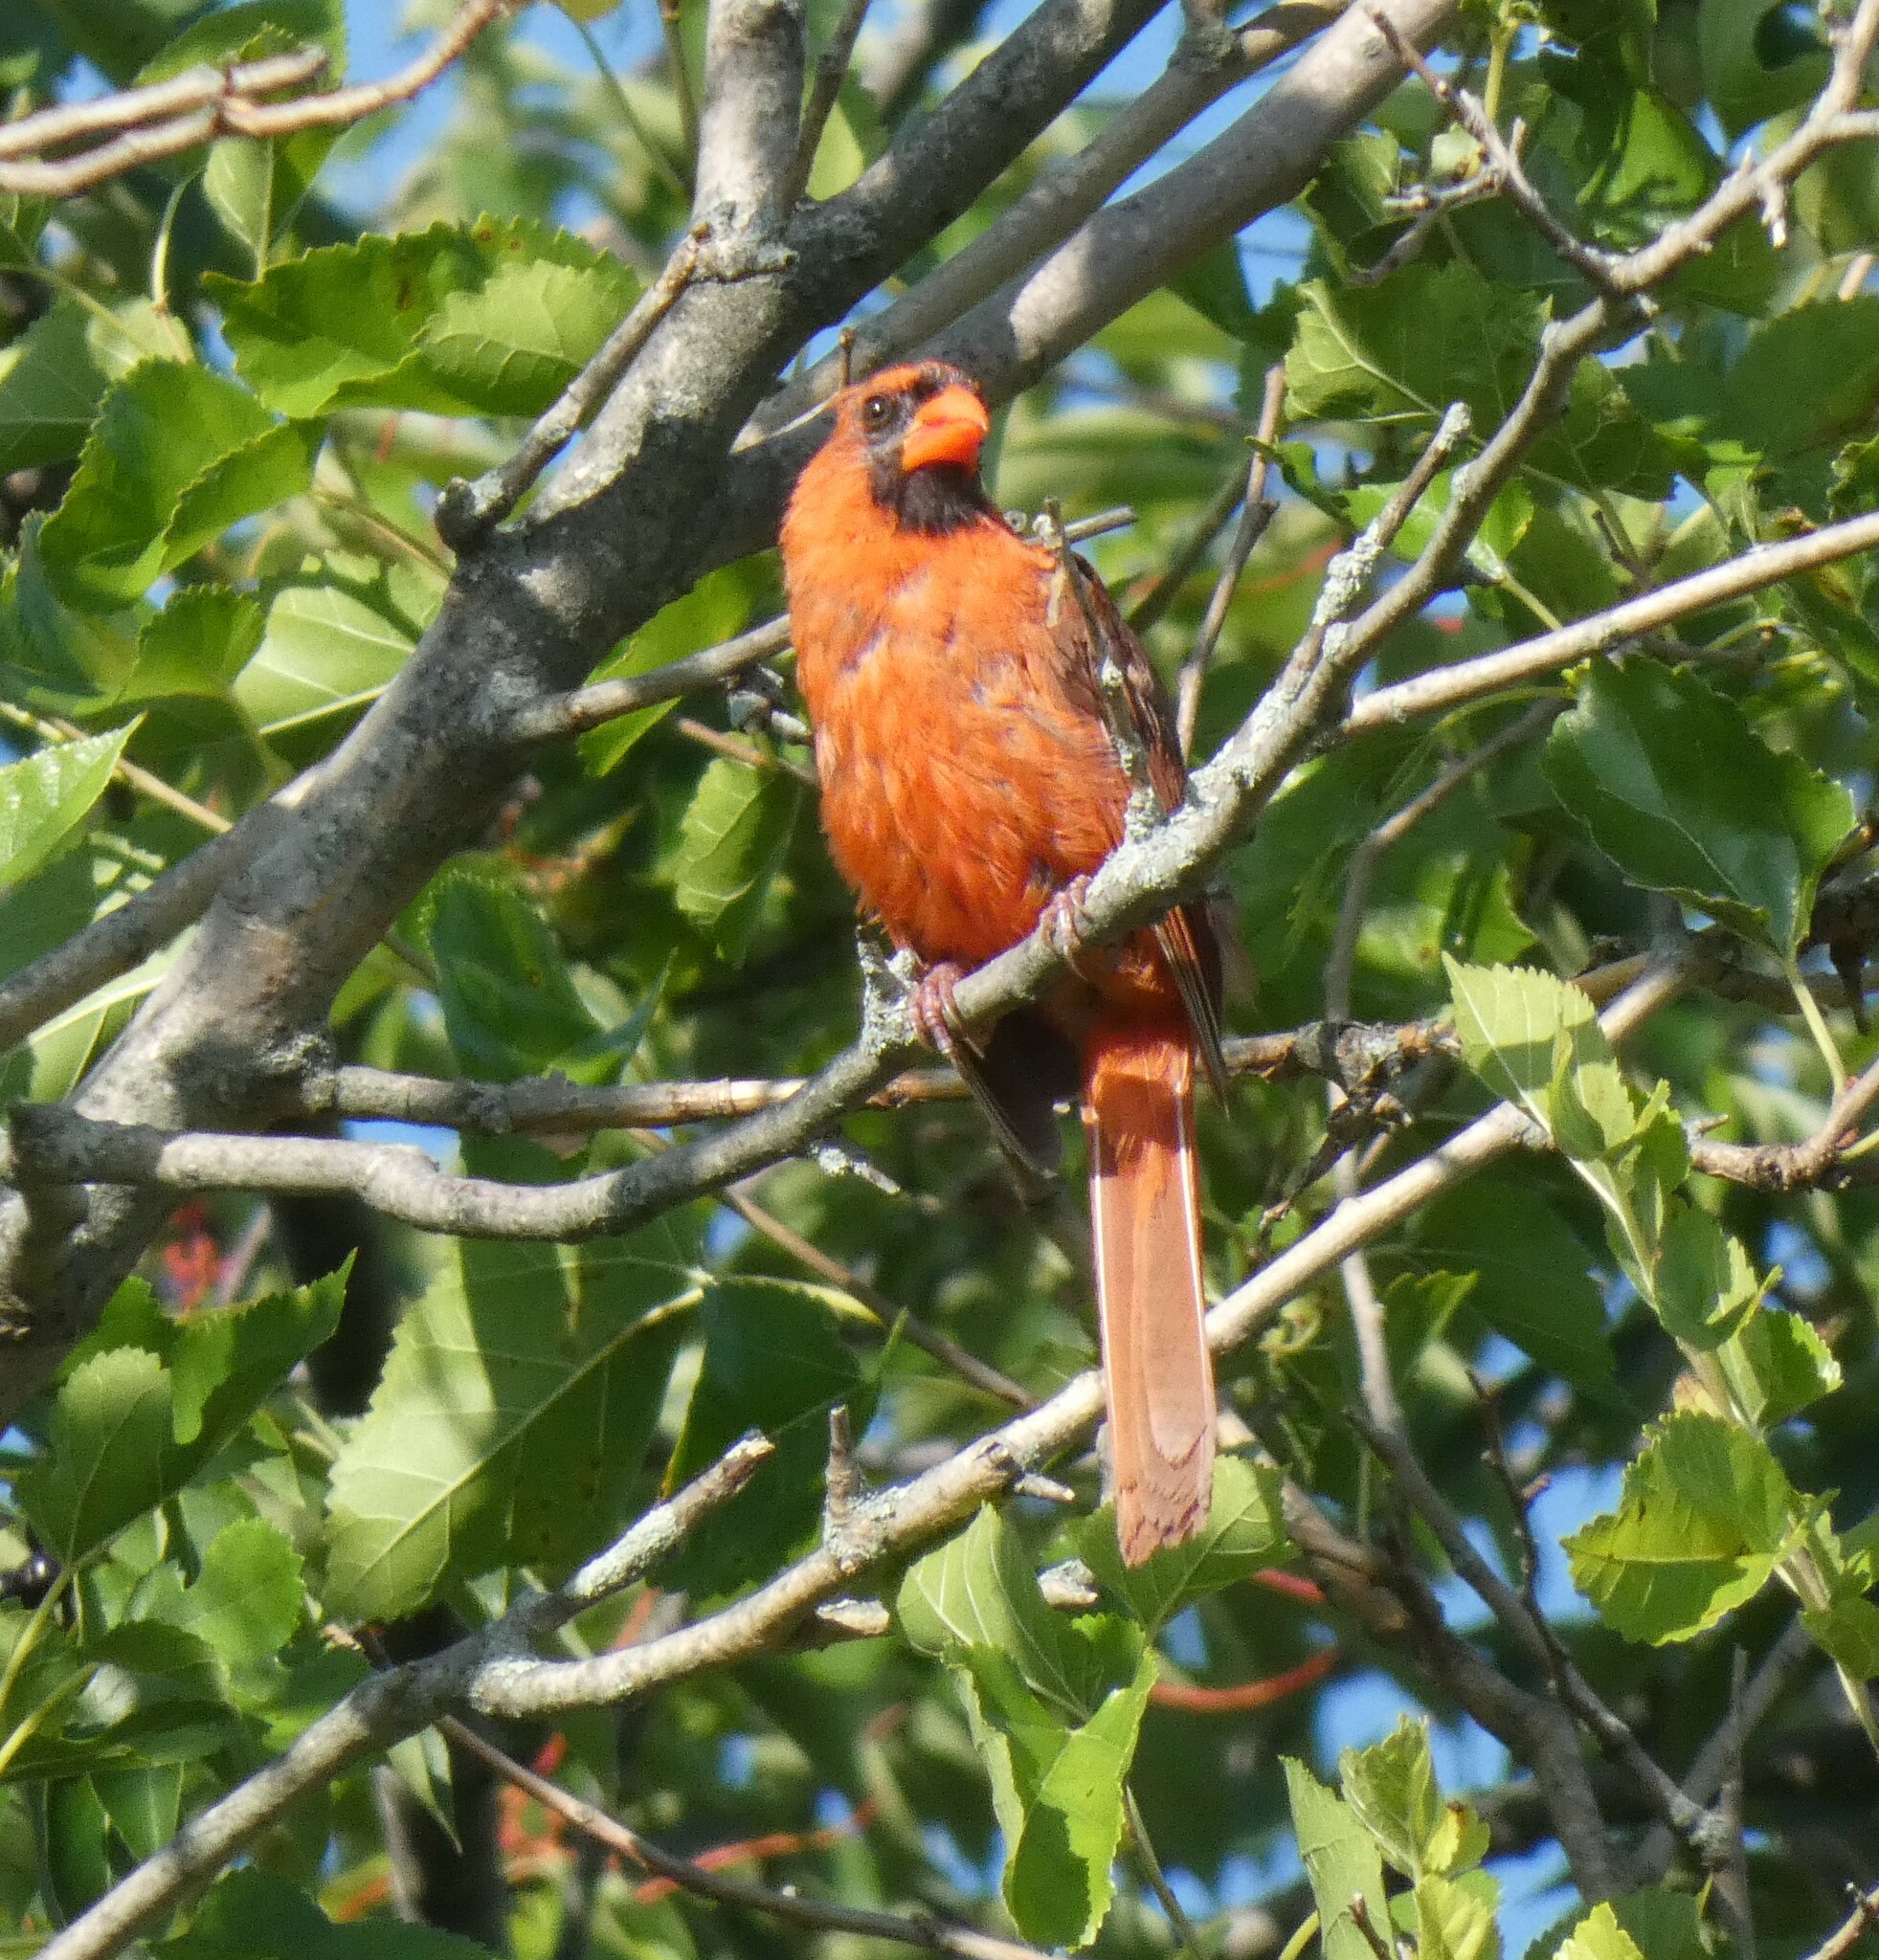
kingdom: Animalia
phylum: Chordata
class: Aves
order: Passeriformes
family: Cardinalidae
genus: Cardinalis
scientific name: Cardinalis cardinalis
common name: Northern cardinal
